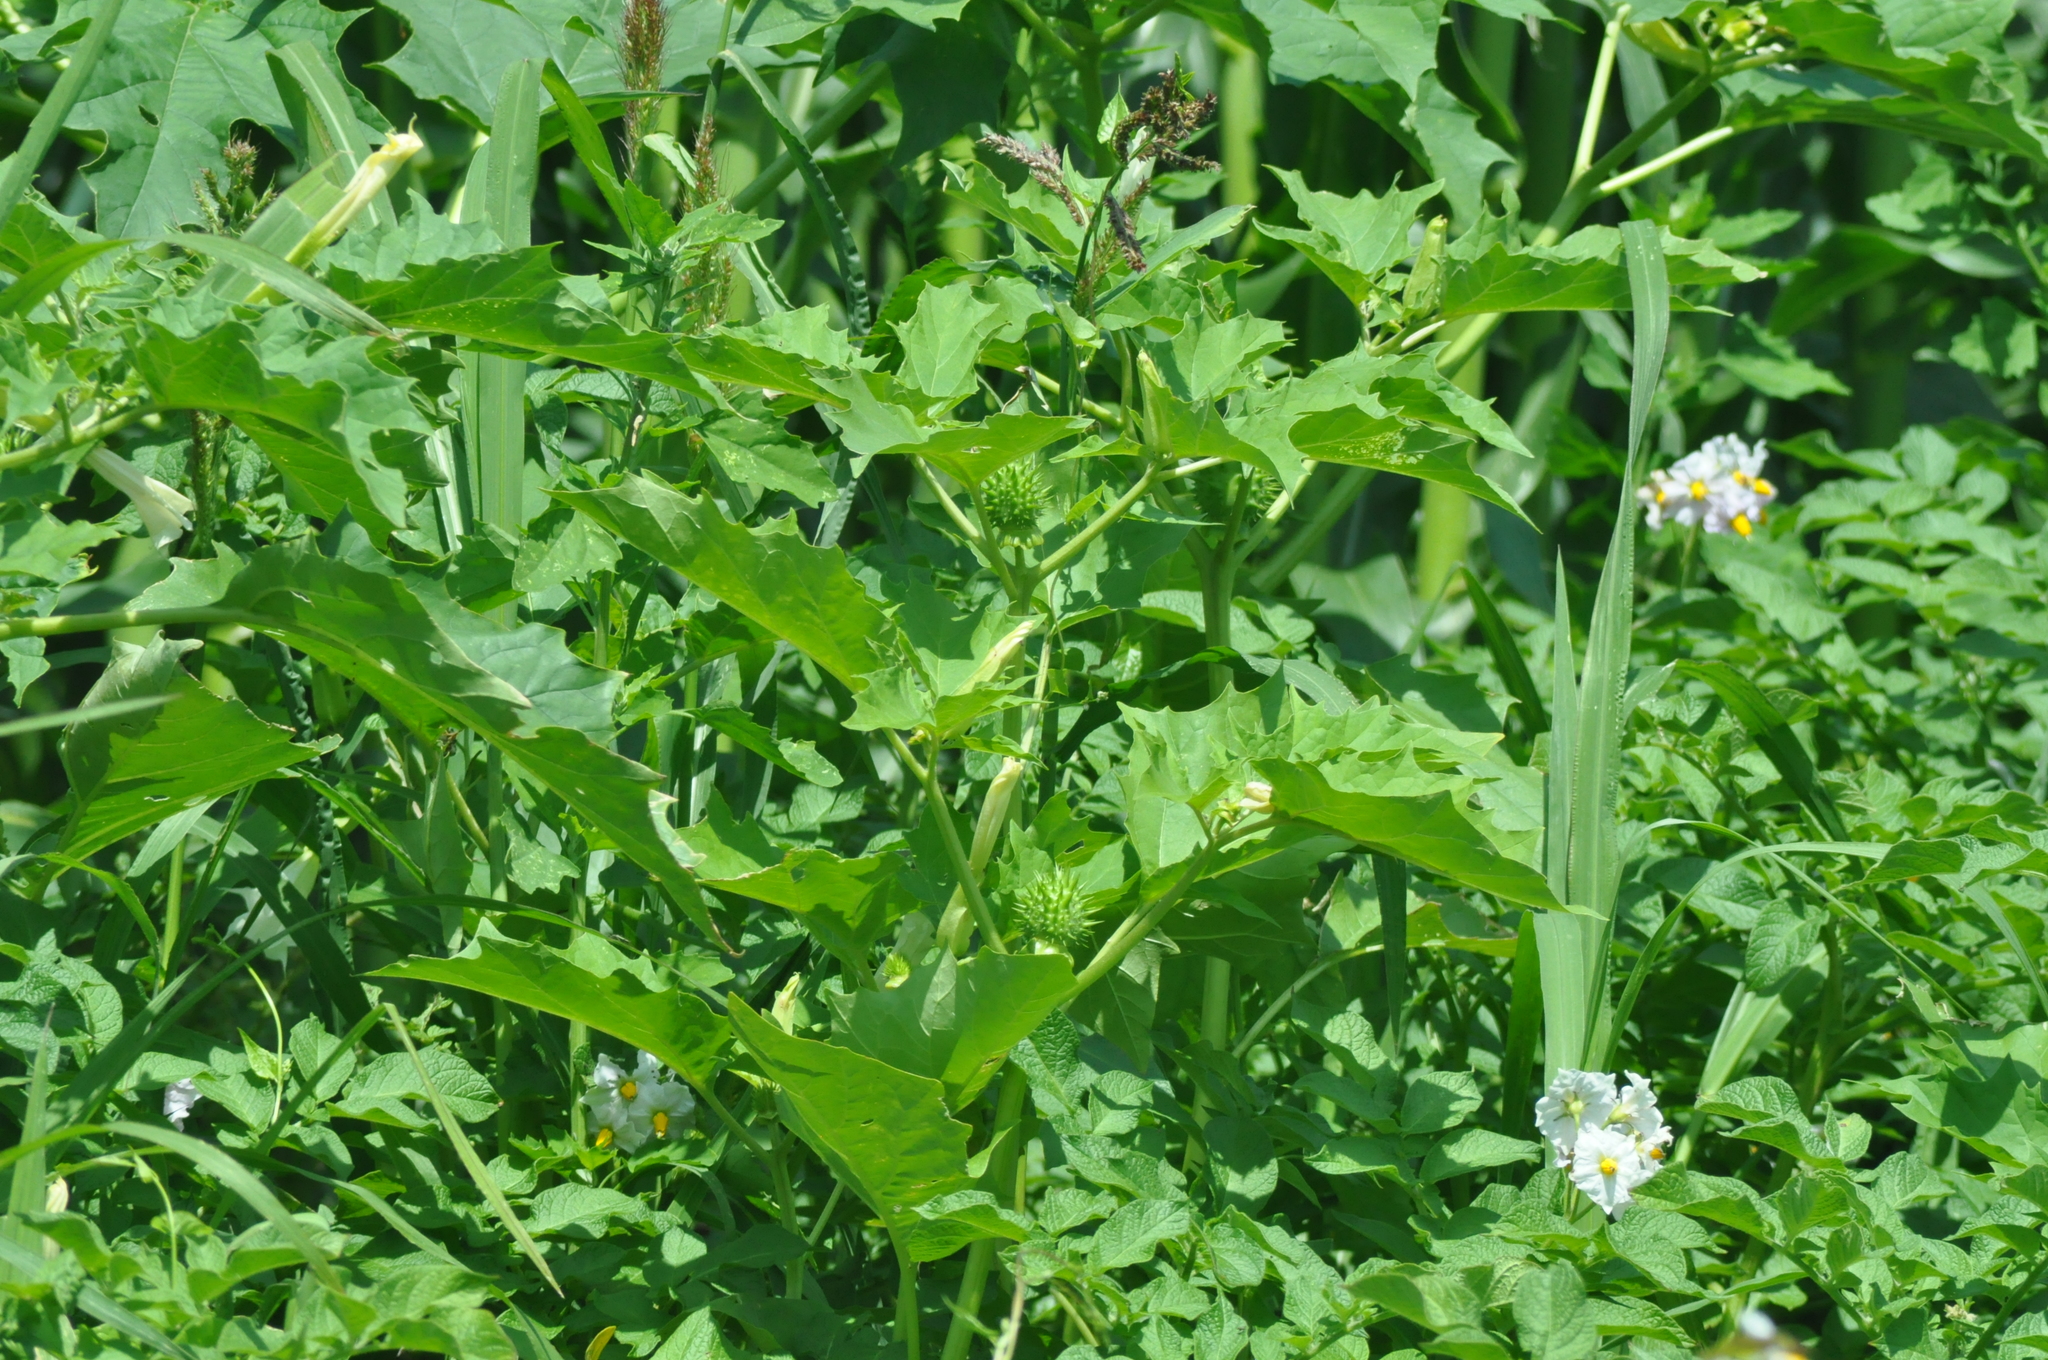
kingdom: Plantae
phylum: Tracheophyta
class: Magnoliopsida
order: Solanales
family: Solanaceae
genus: Datura
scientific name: Datura stramonium
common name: Thorn-apple
